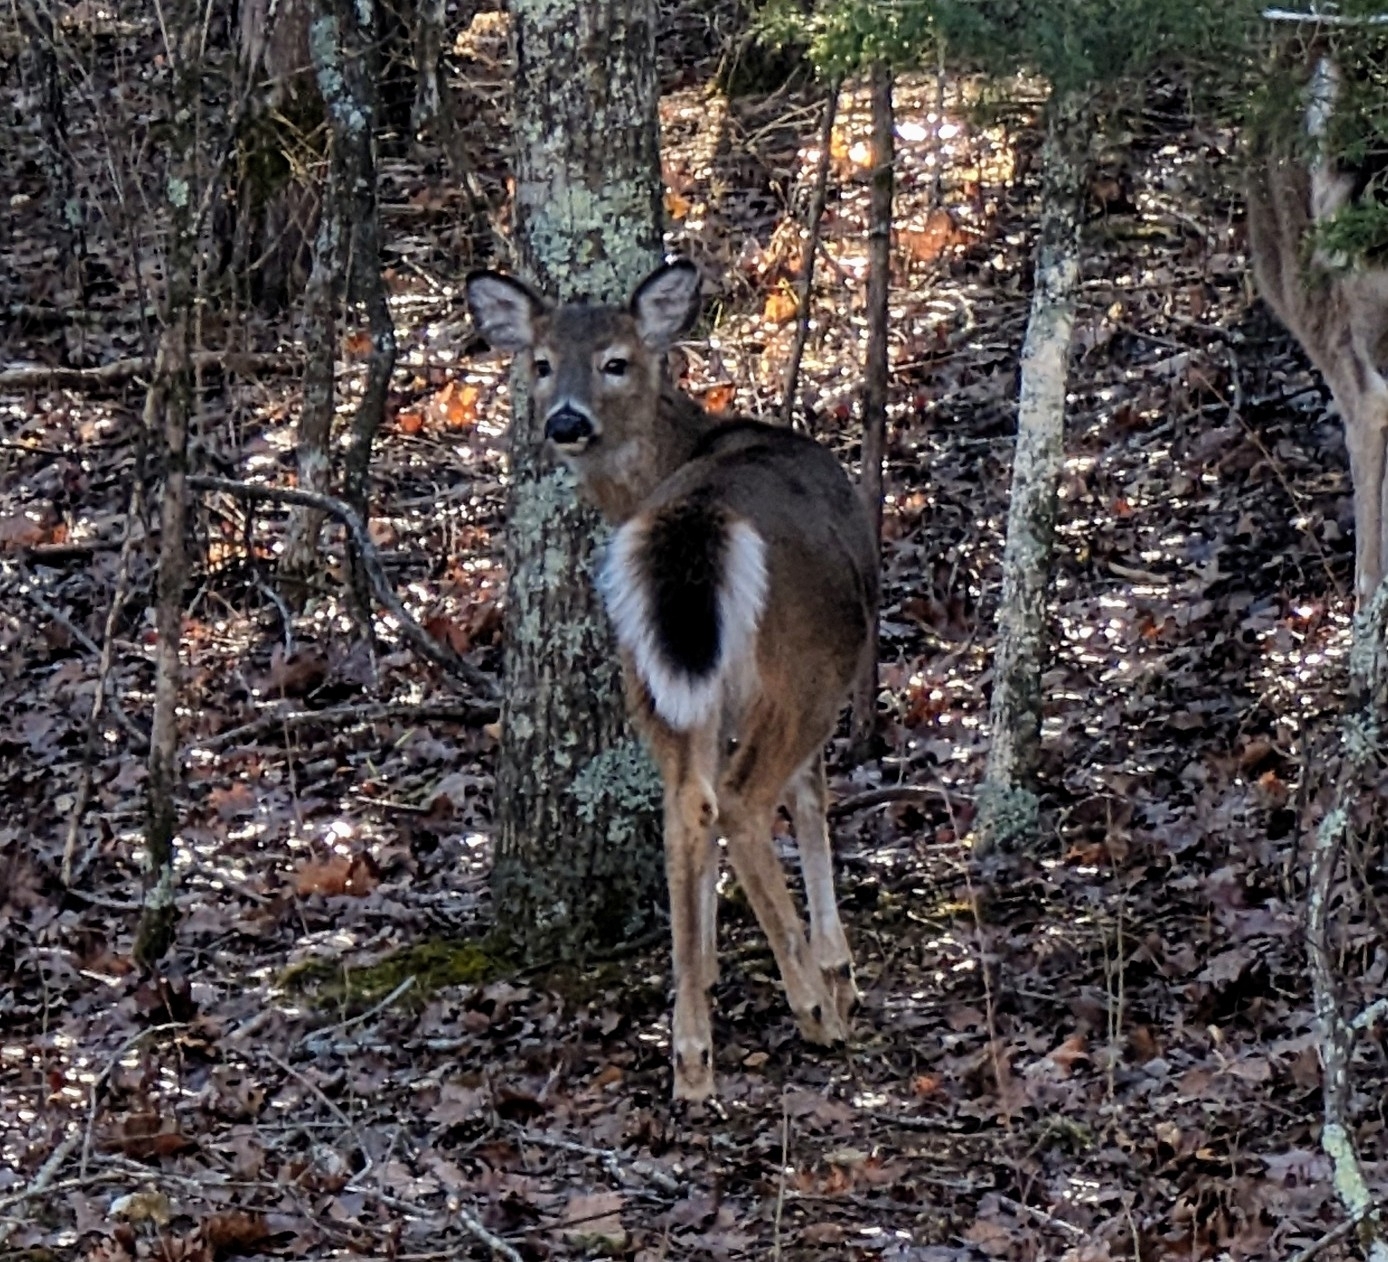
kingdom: Animalia
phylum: Chordata
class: Mammalia
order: Artiodactyla
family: Cervidae
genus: Odocoileus
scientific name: Odocoileus virginianus
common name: White-tailed deer
